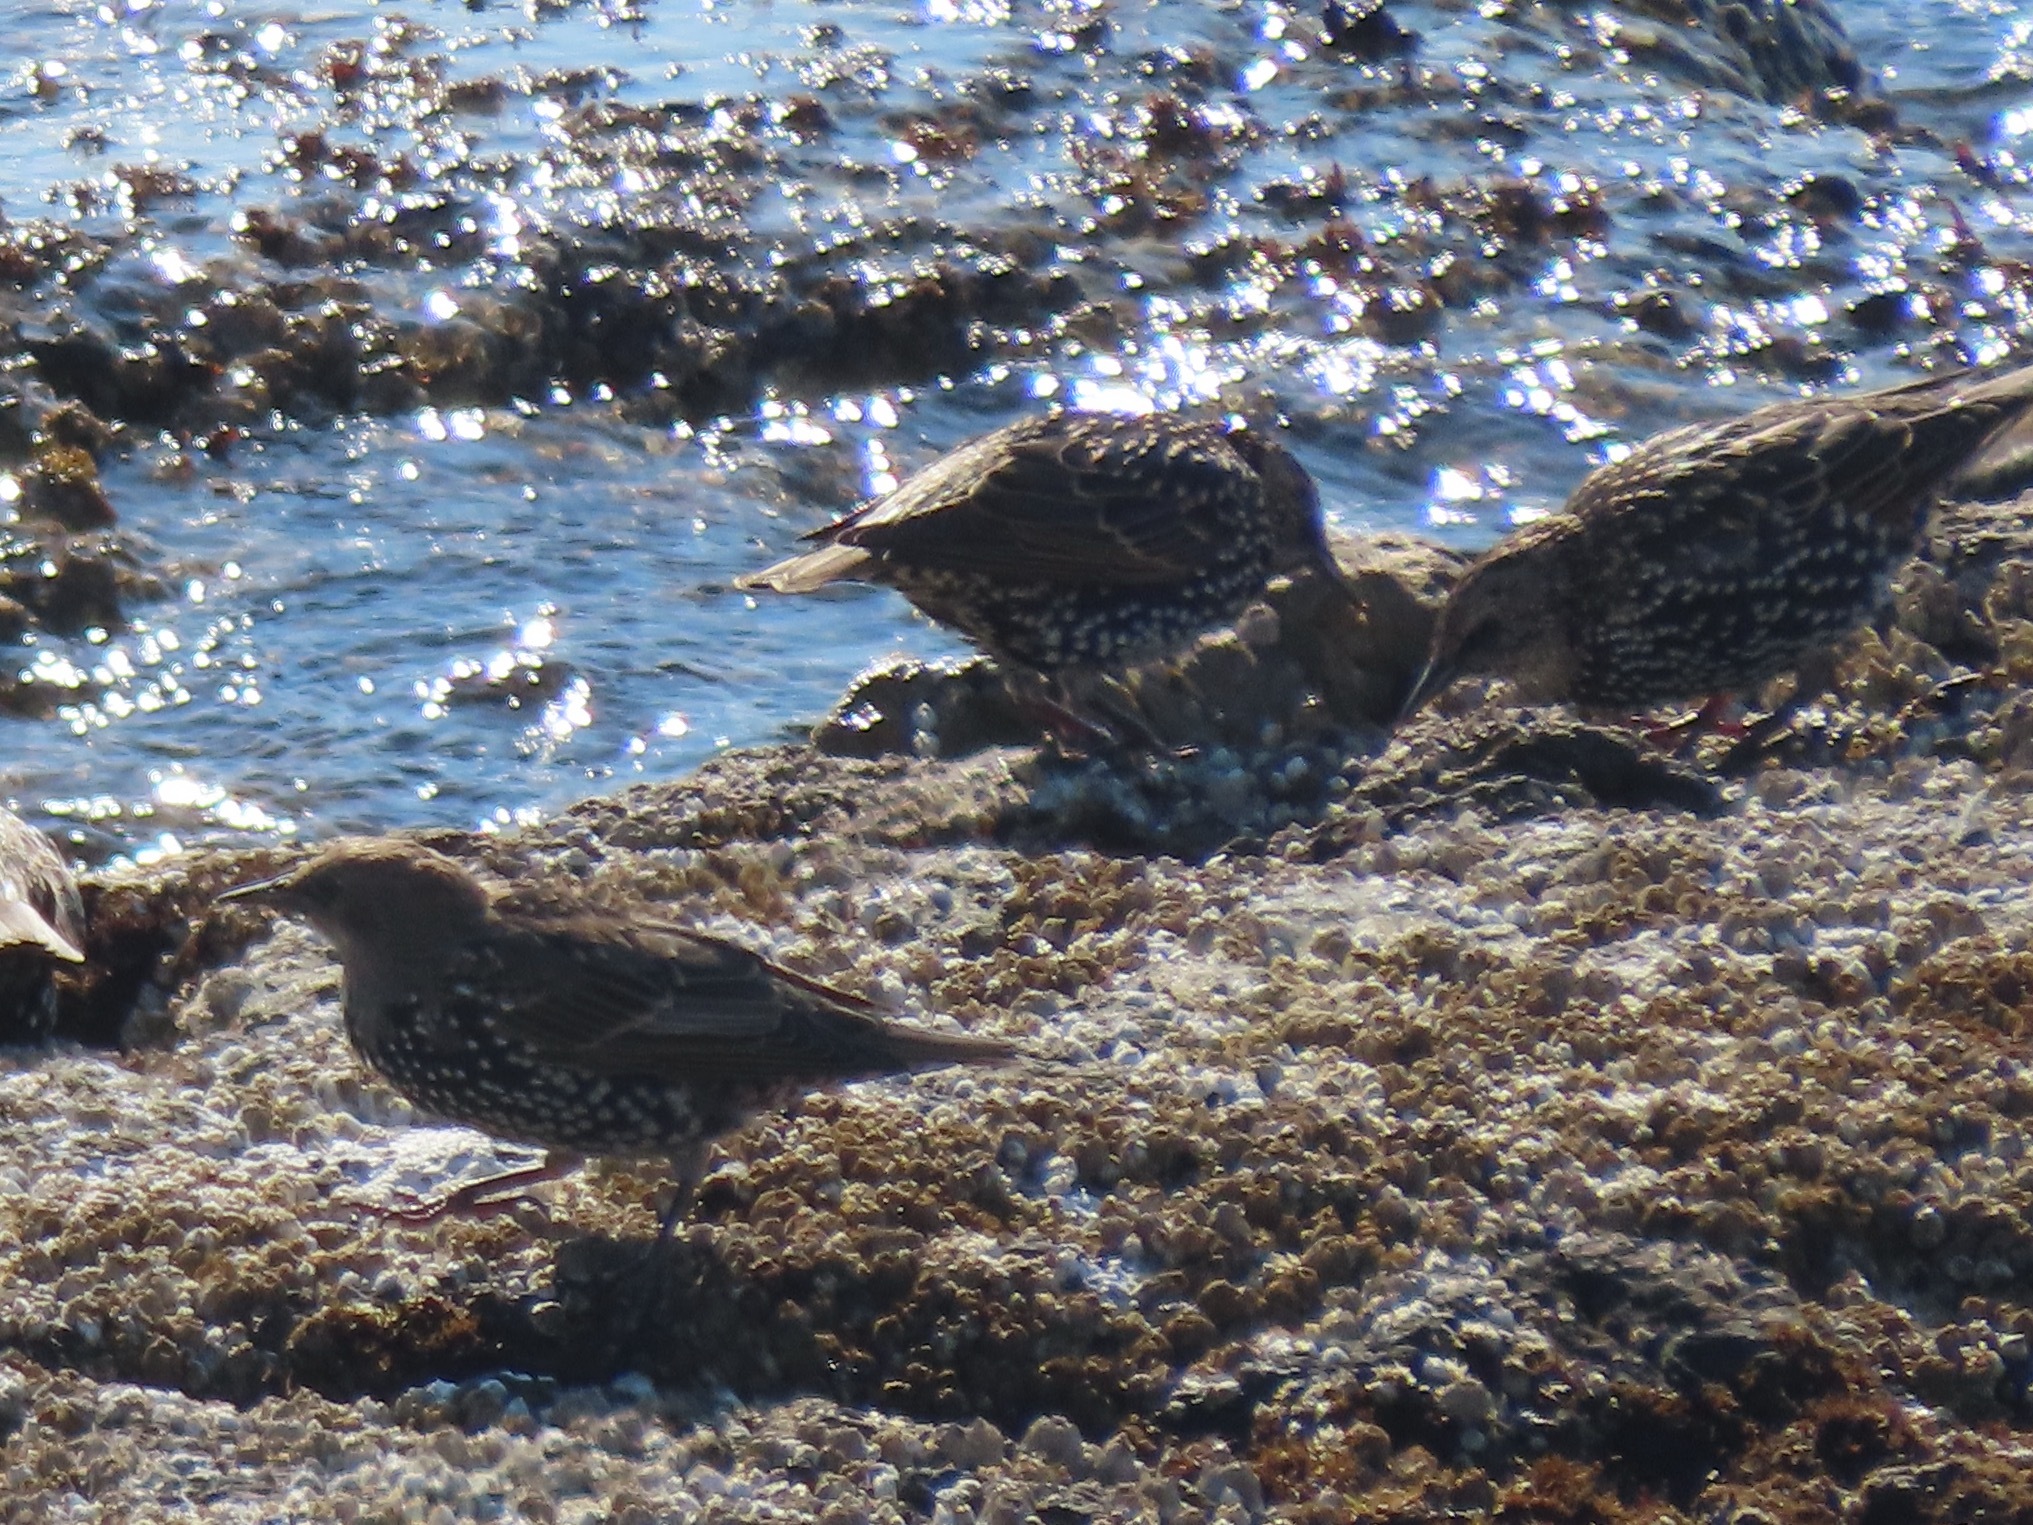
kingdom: Animalia
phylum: Chordata
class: Aves
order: Passeriformes
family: Sturnidae
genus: Sturnus
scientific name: Sturnus vulgaris
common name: Common starling
